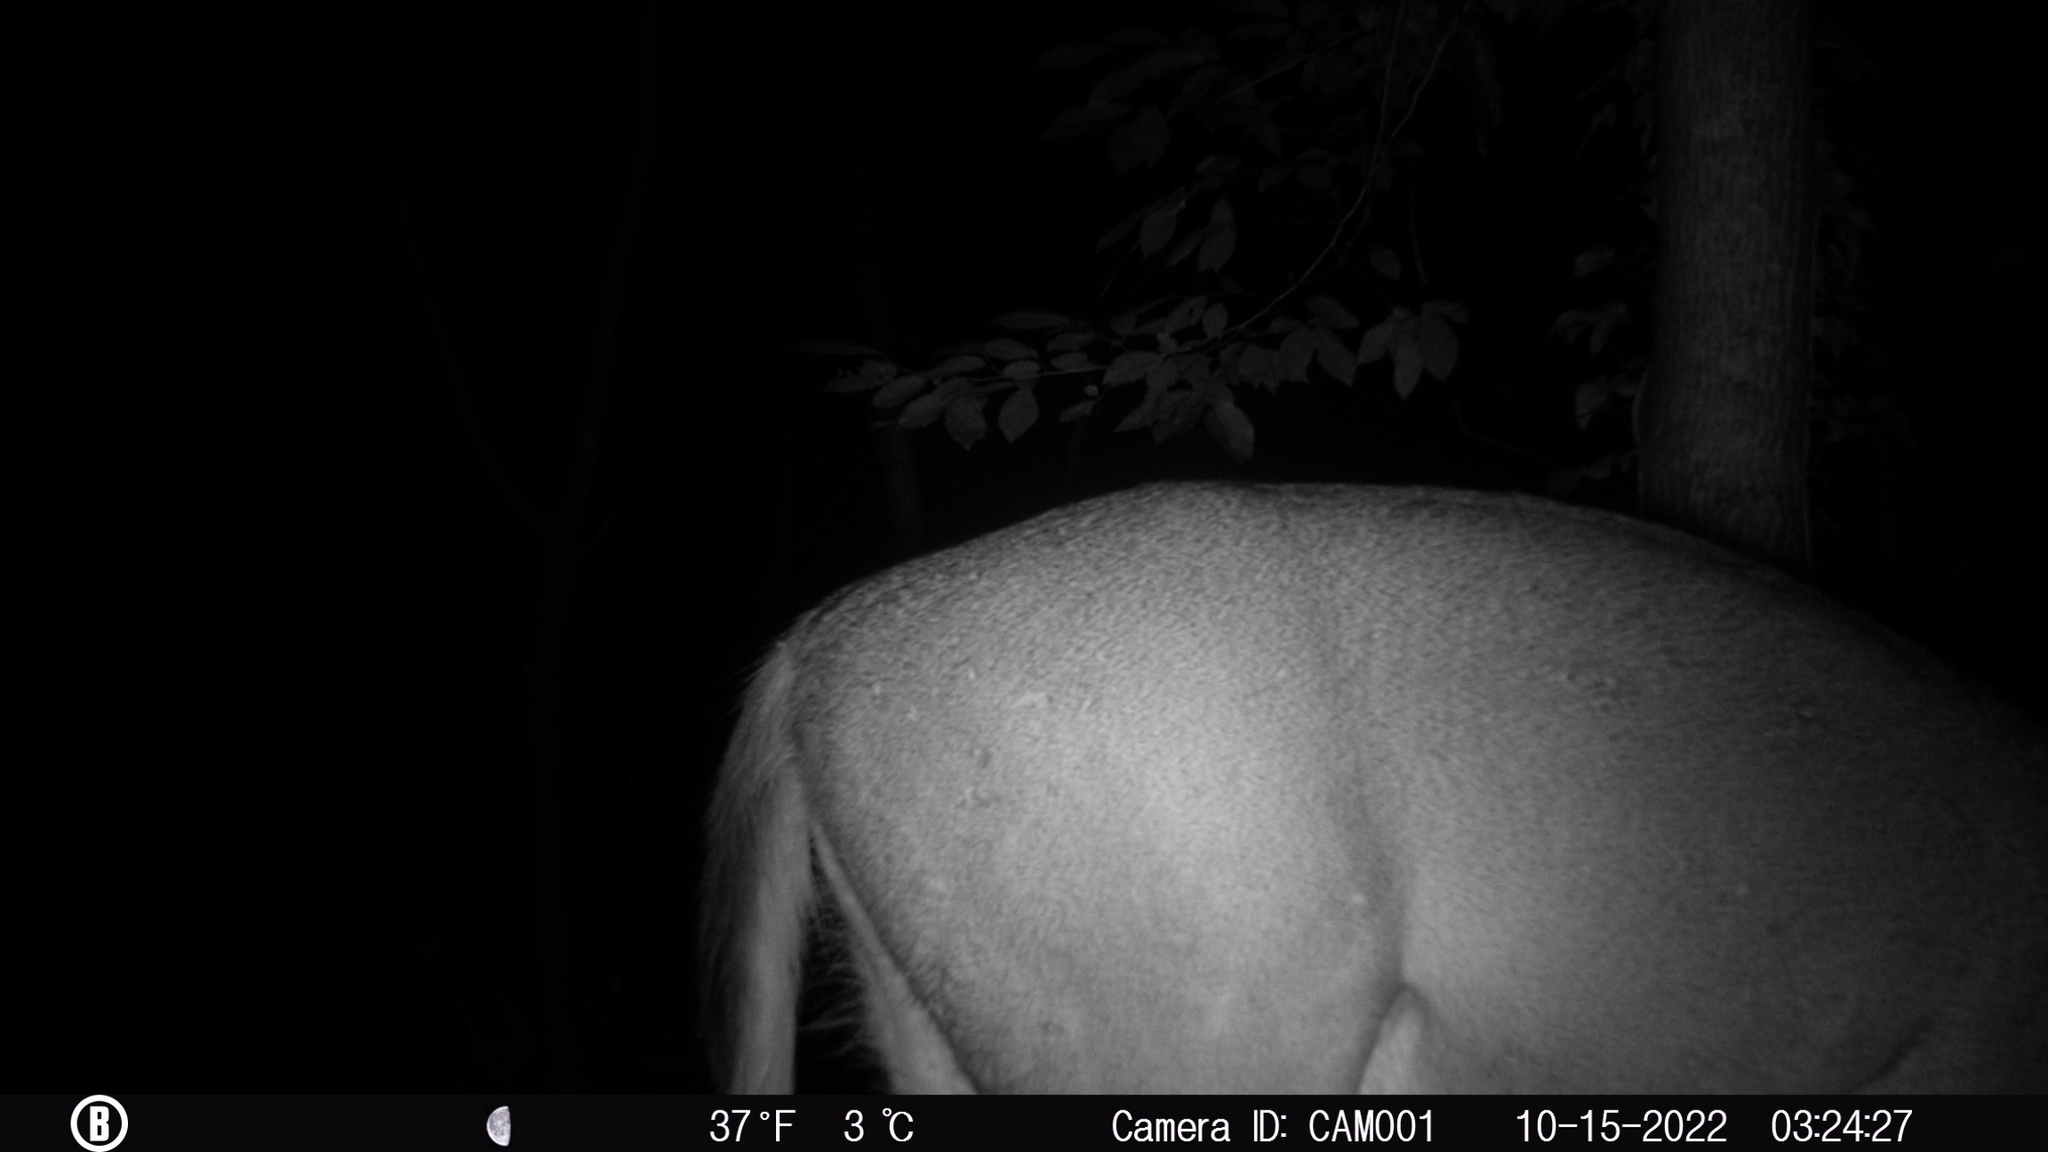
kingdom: Animalia
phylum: Chordata
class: Mammalia
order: Artiodactyla
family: Cervidae
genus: Odocoileus
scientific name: Odocoileus virginianus
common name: White-tailed deer
